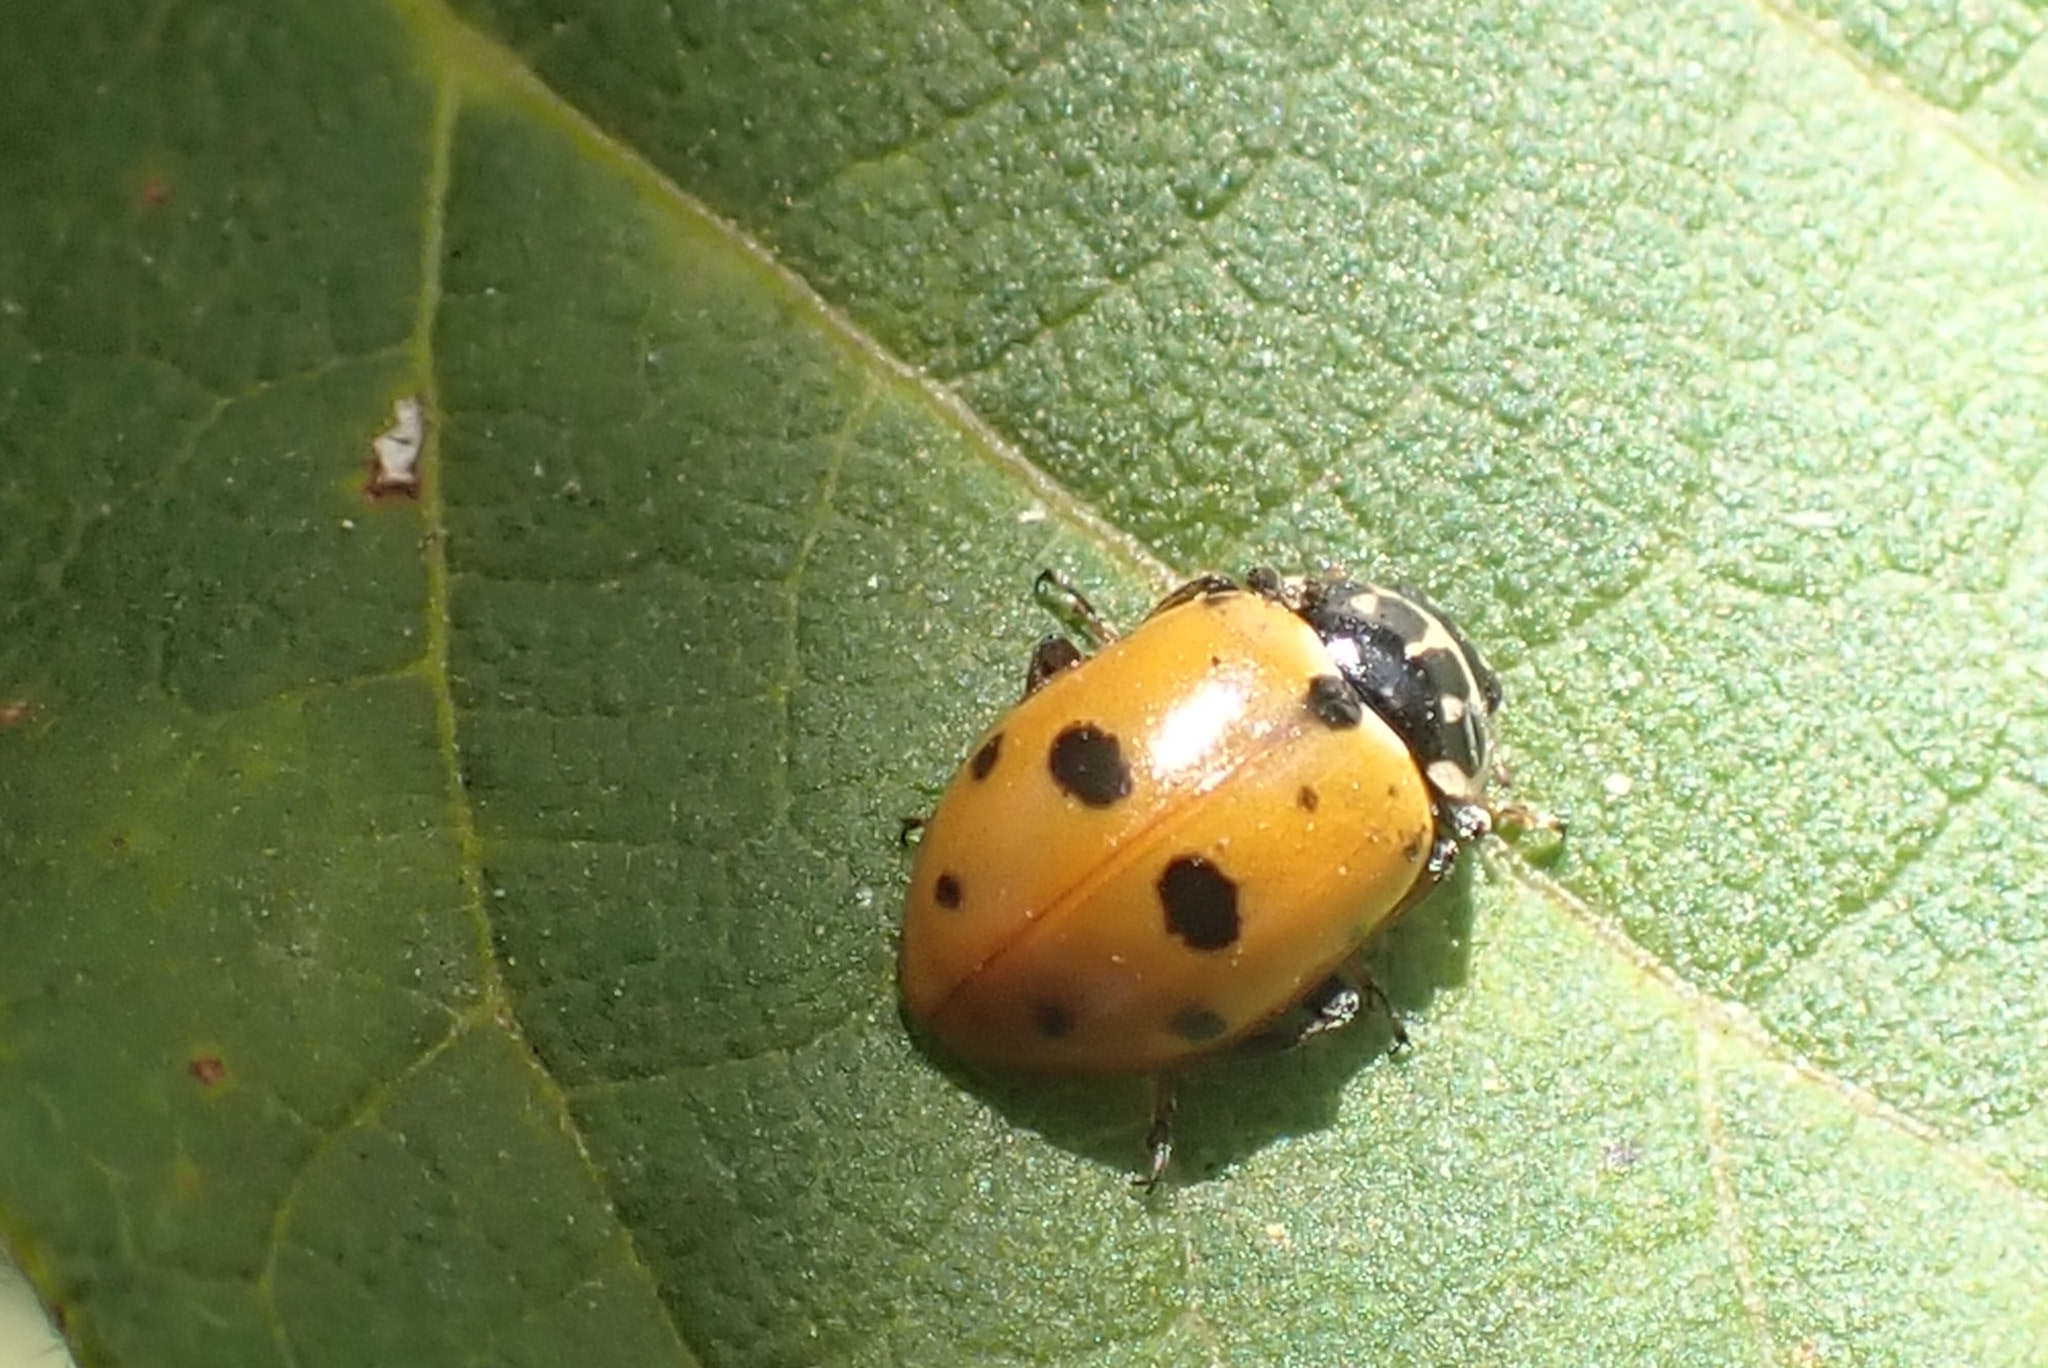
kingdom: Animalia
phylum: Arthropoda
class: Insecta
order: Coleoptera
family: Coccinellidae
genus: Hippodamia
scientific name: Hippodamia variegata
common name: Ladybird beetle
